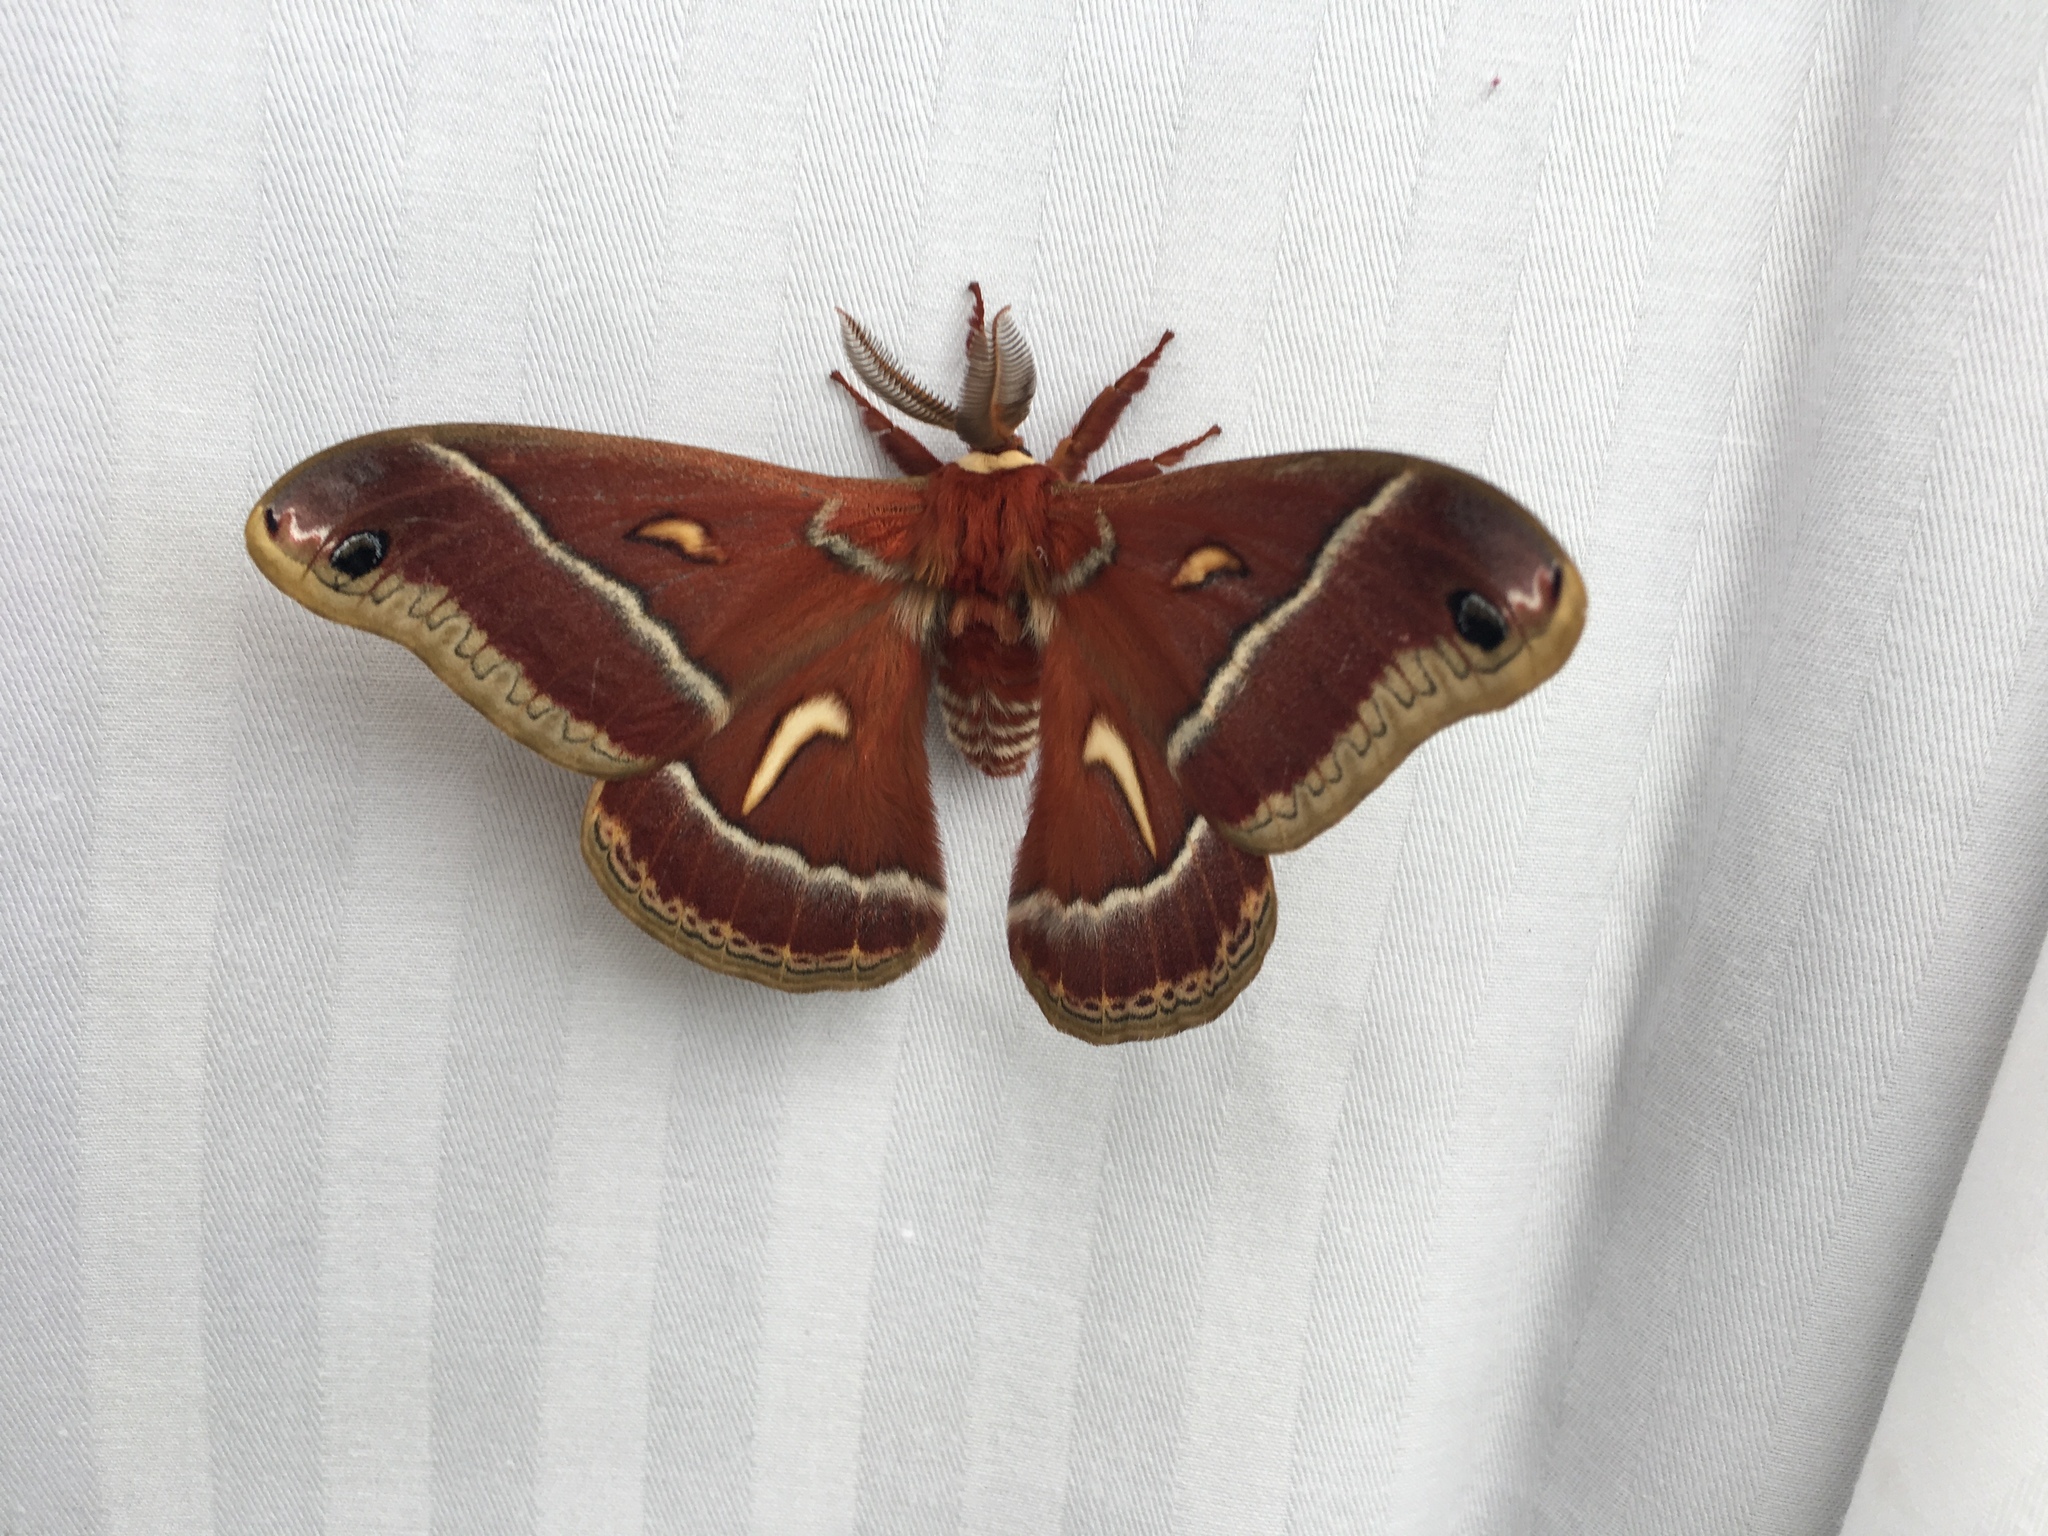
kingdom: Animalia
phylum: Arthropoda
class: Insecta
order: Lepidoptera
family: Saturniidae
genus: Hyalophora
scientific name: Hyalophora euryalus
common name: Ceanothus silkmoth
